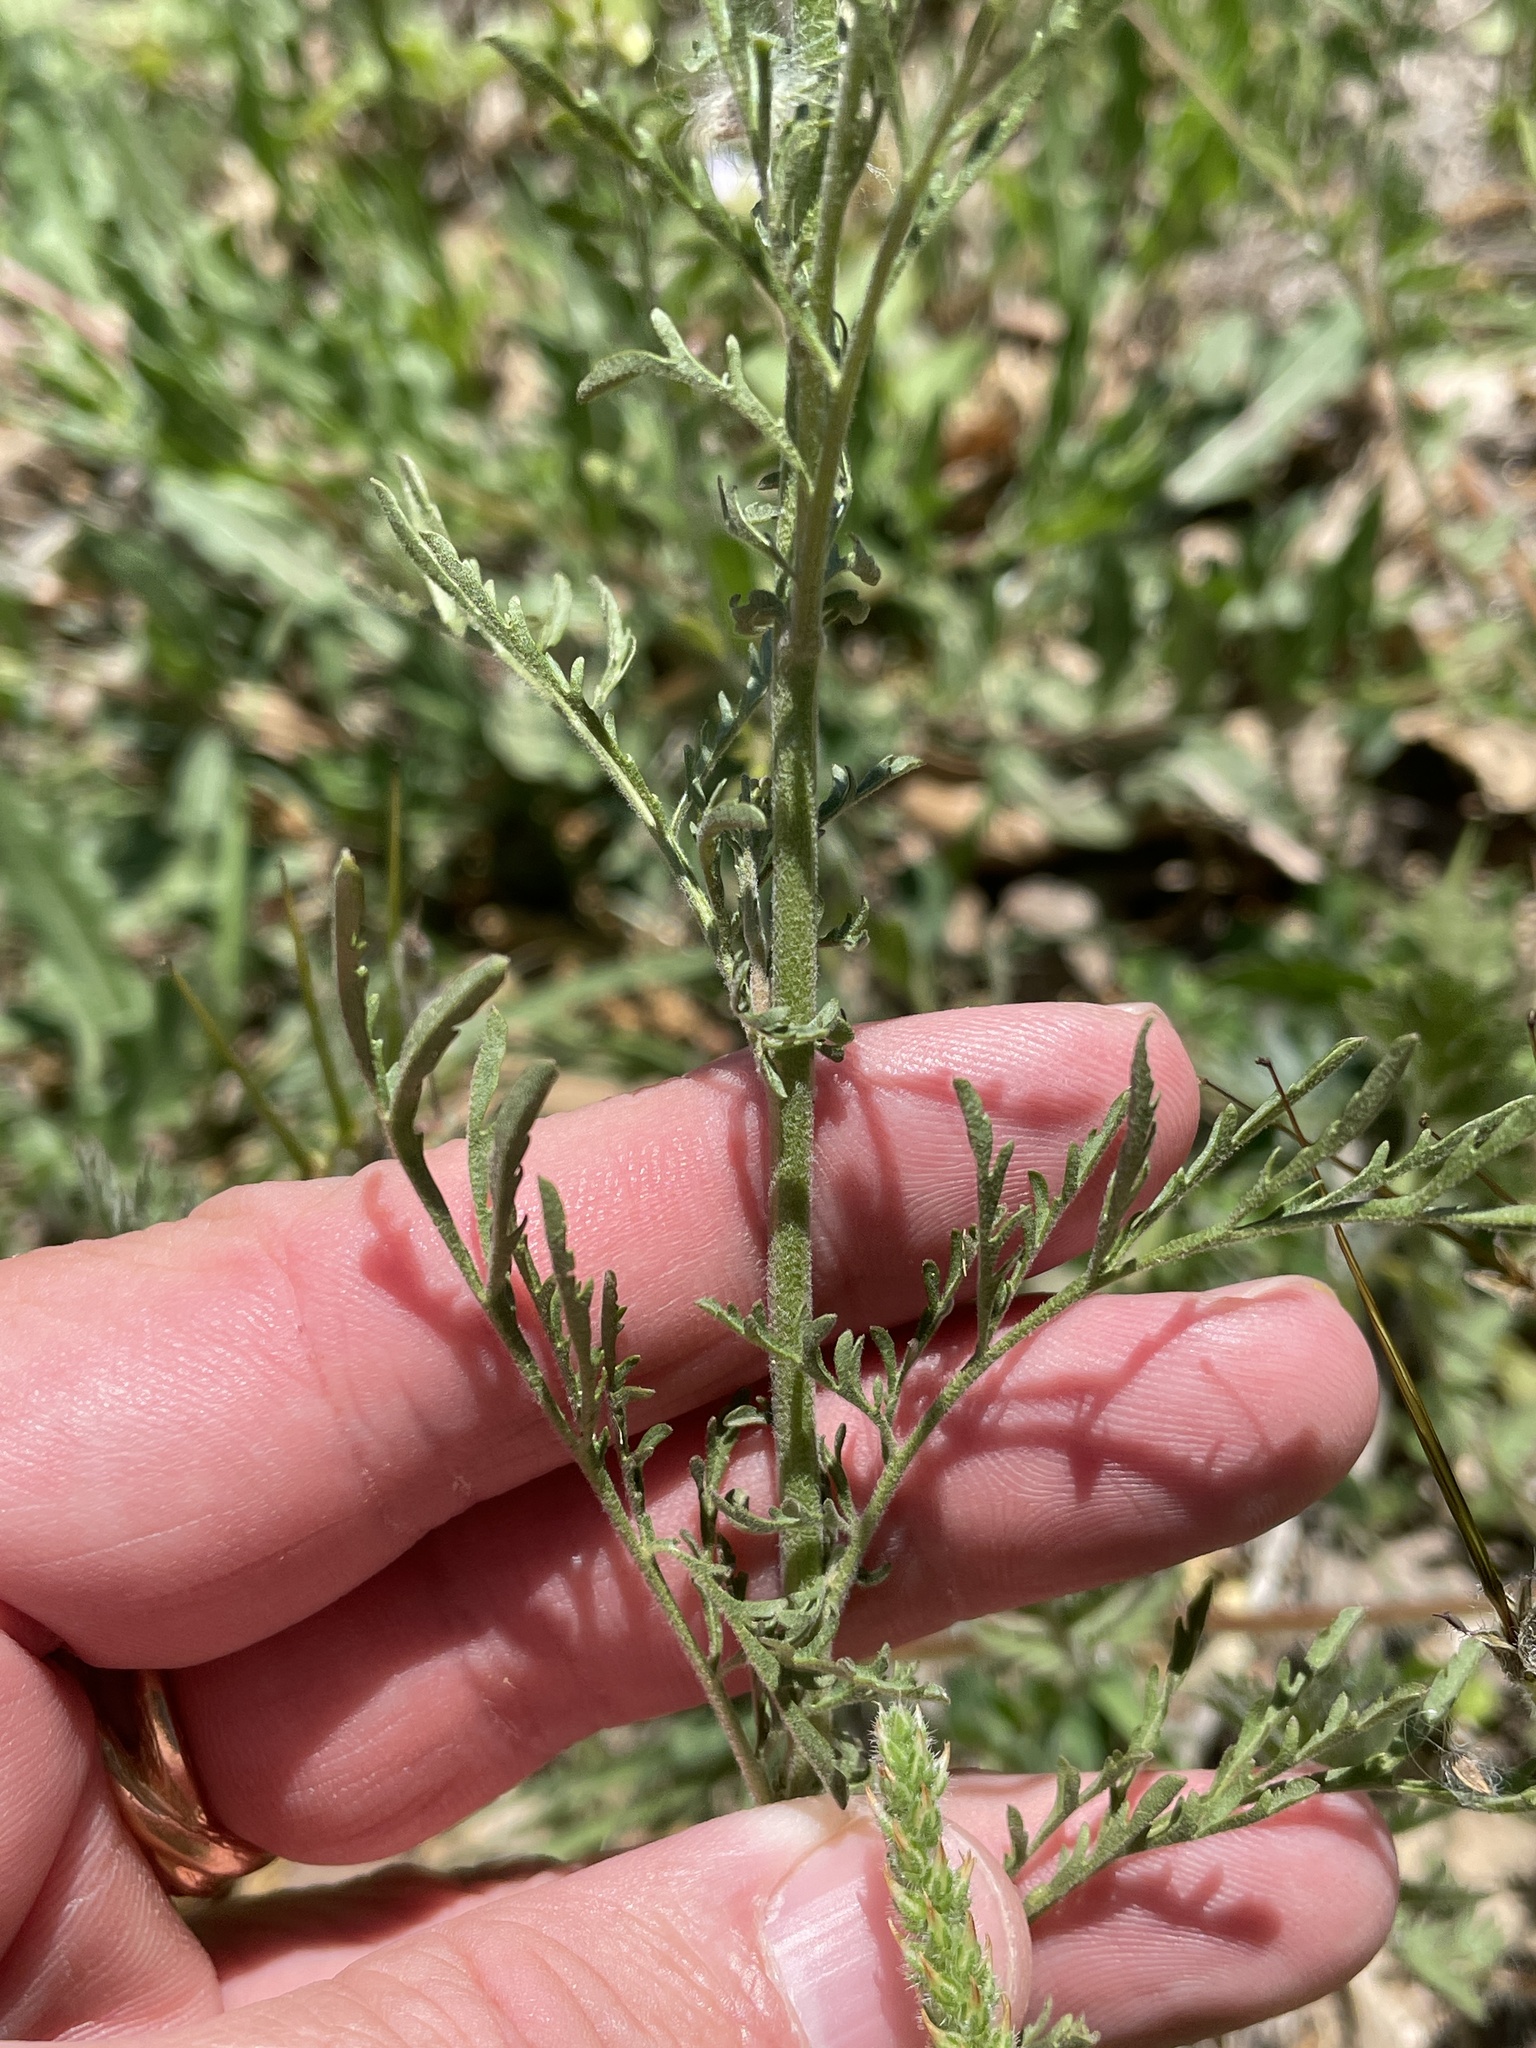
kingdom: Plantae
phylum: Tracheophyta
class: Magnoliopsida
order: Brassicales
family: Brassicaceae
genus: Descurainia
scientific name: Descurainia pinnata
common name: Western tansy mustard
